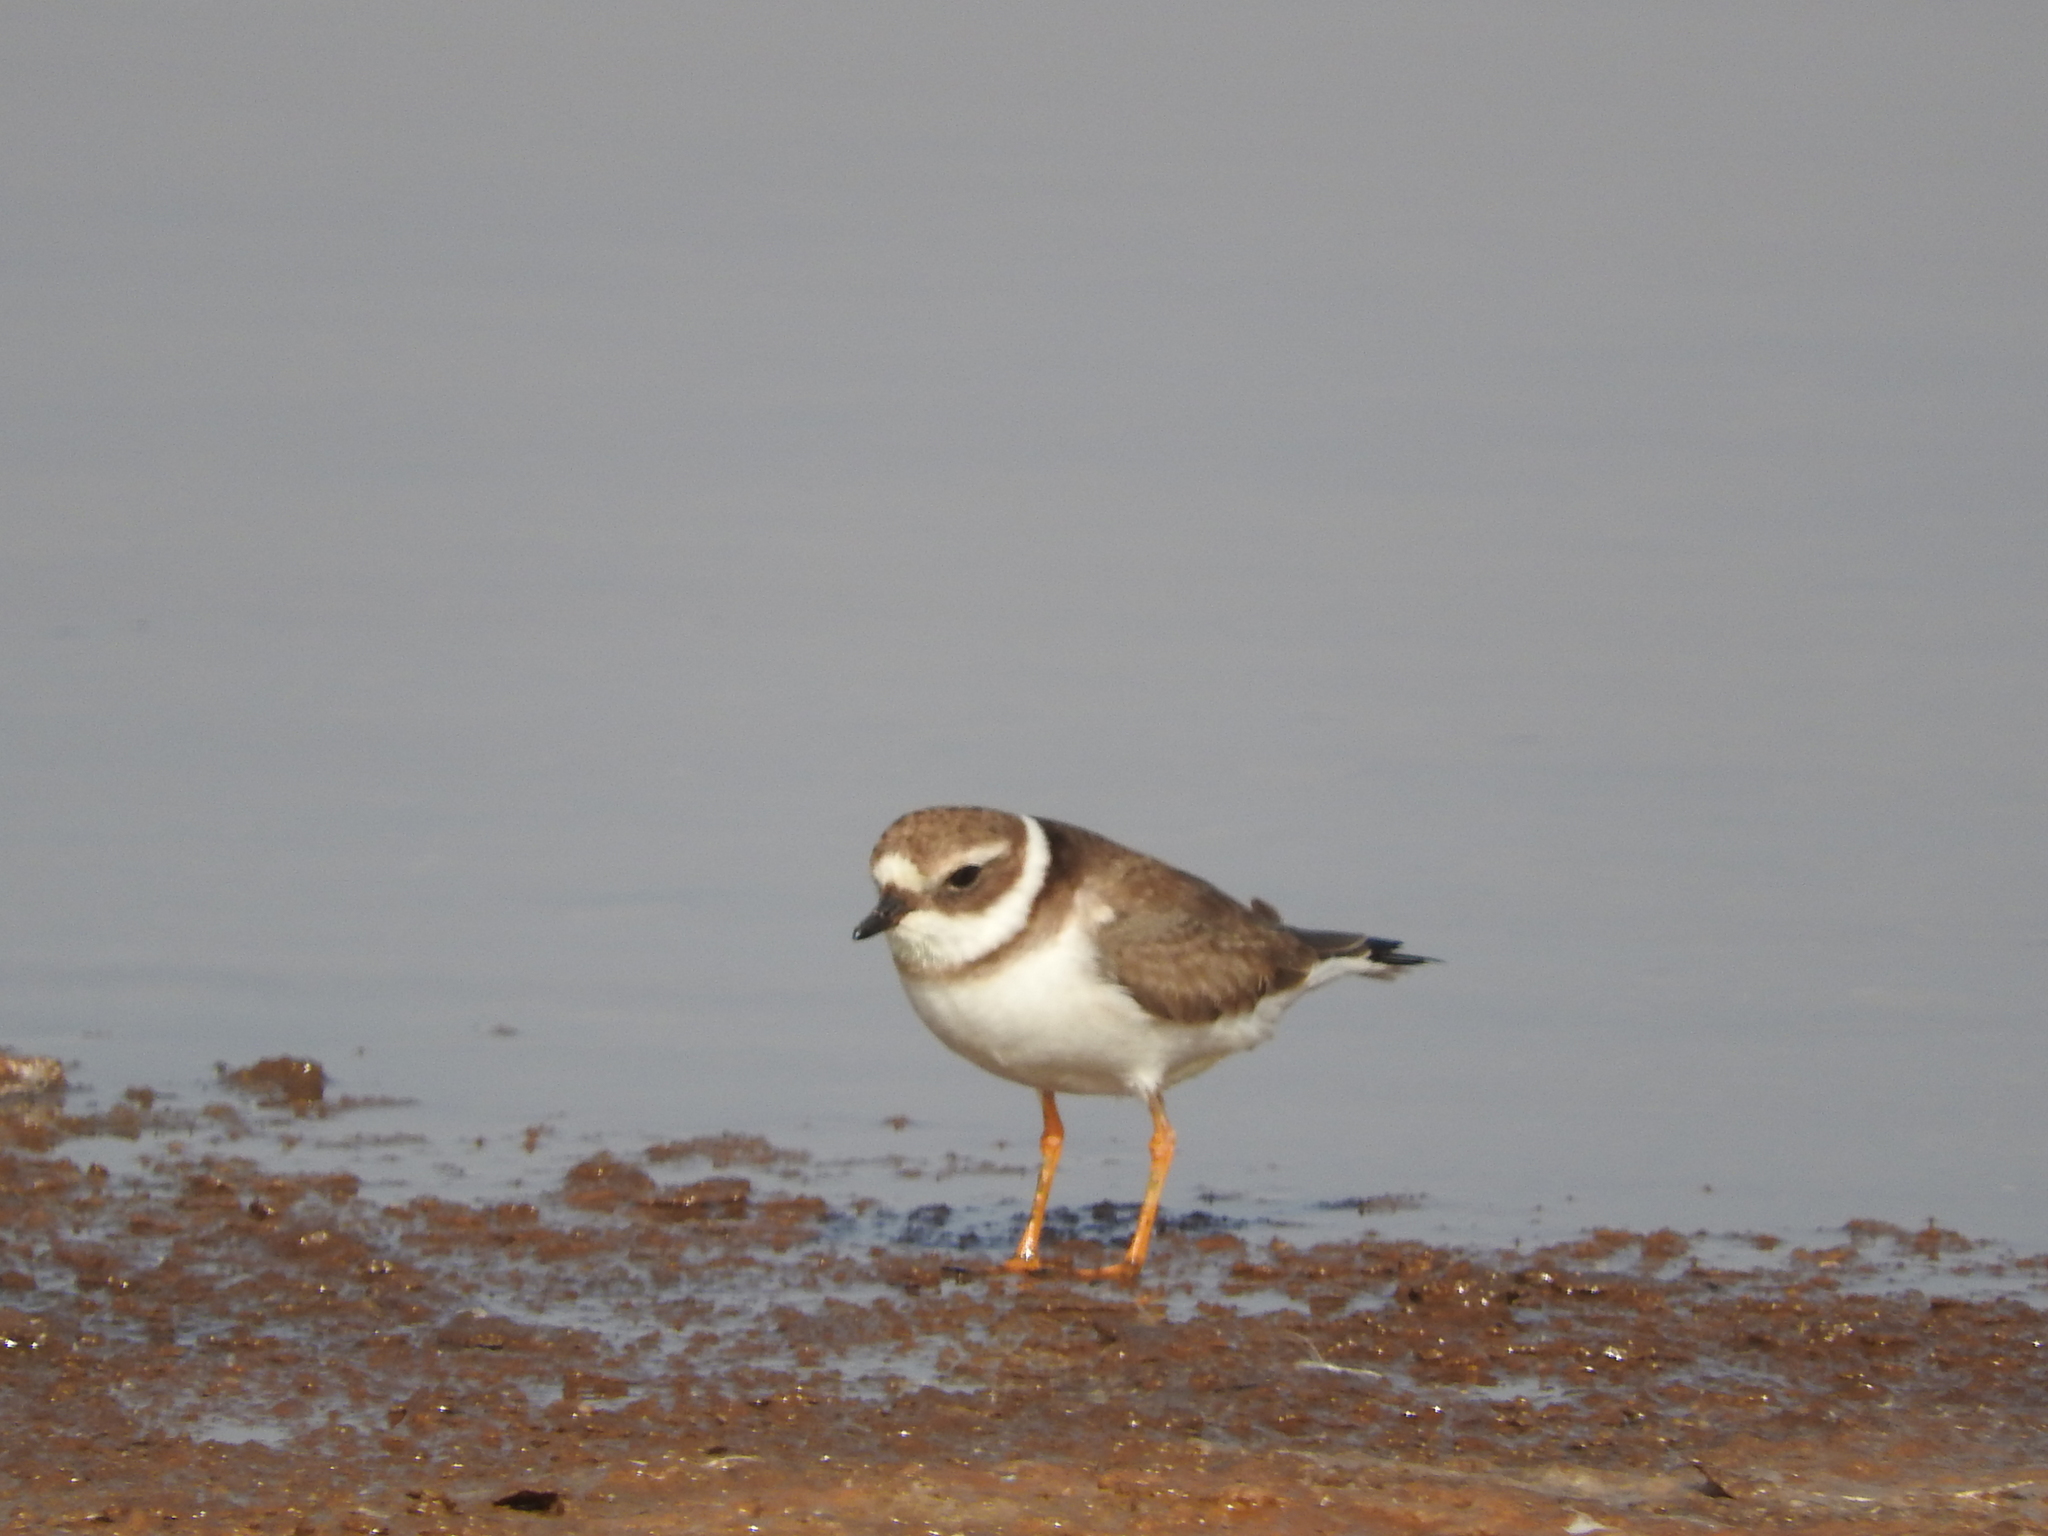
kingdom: Animalia
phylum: Chordata
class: Aves
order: Charadriiformes
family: Charadriidae
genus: Charadrius
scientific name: Charadrius hiaticula
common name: Common ringed plover
